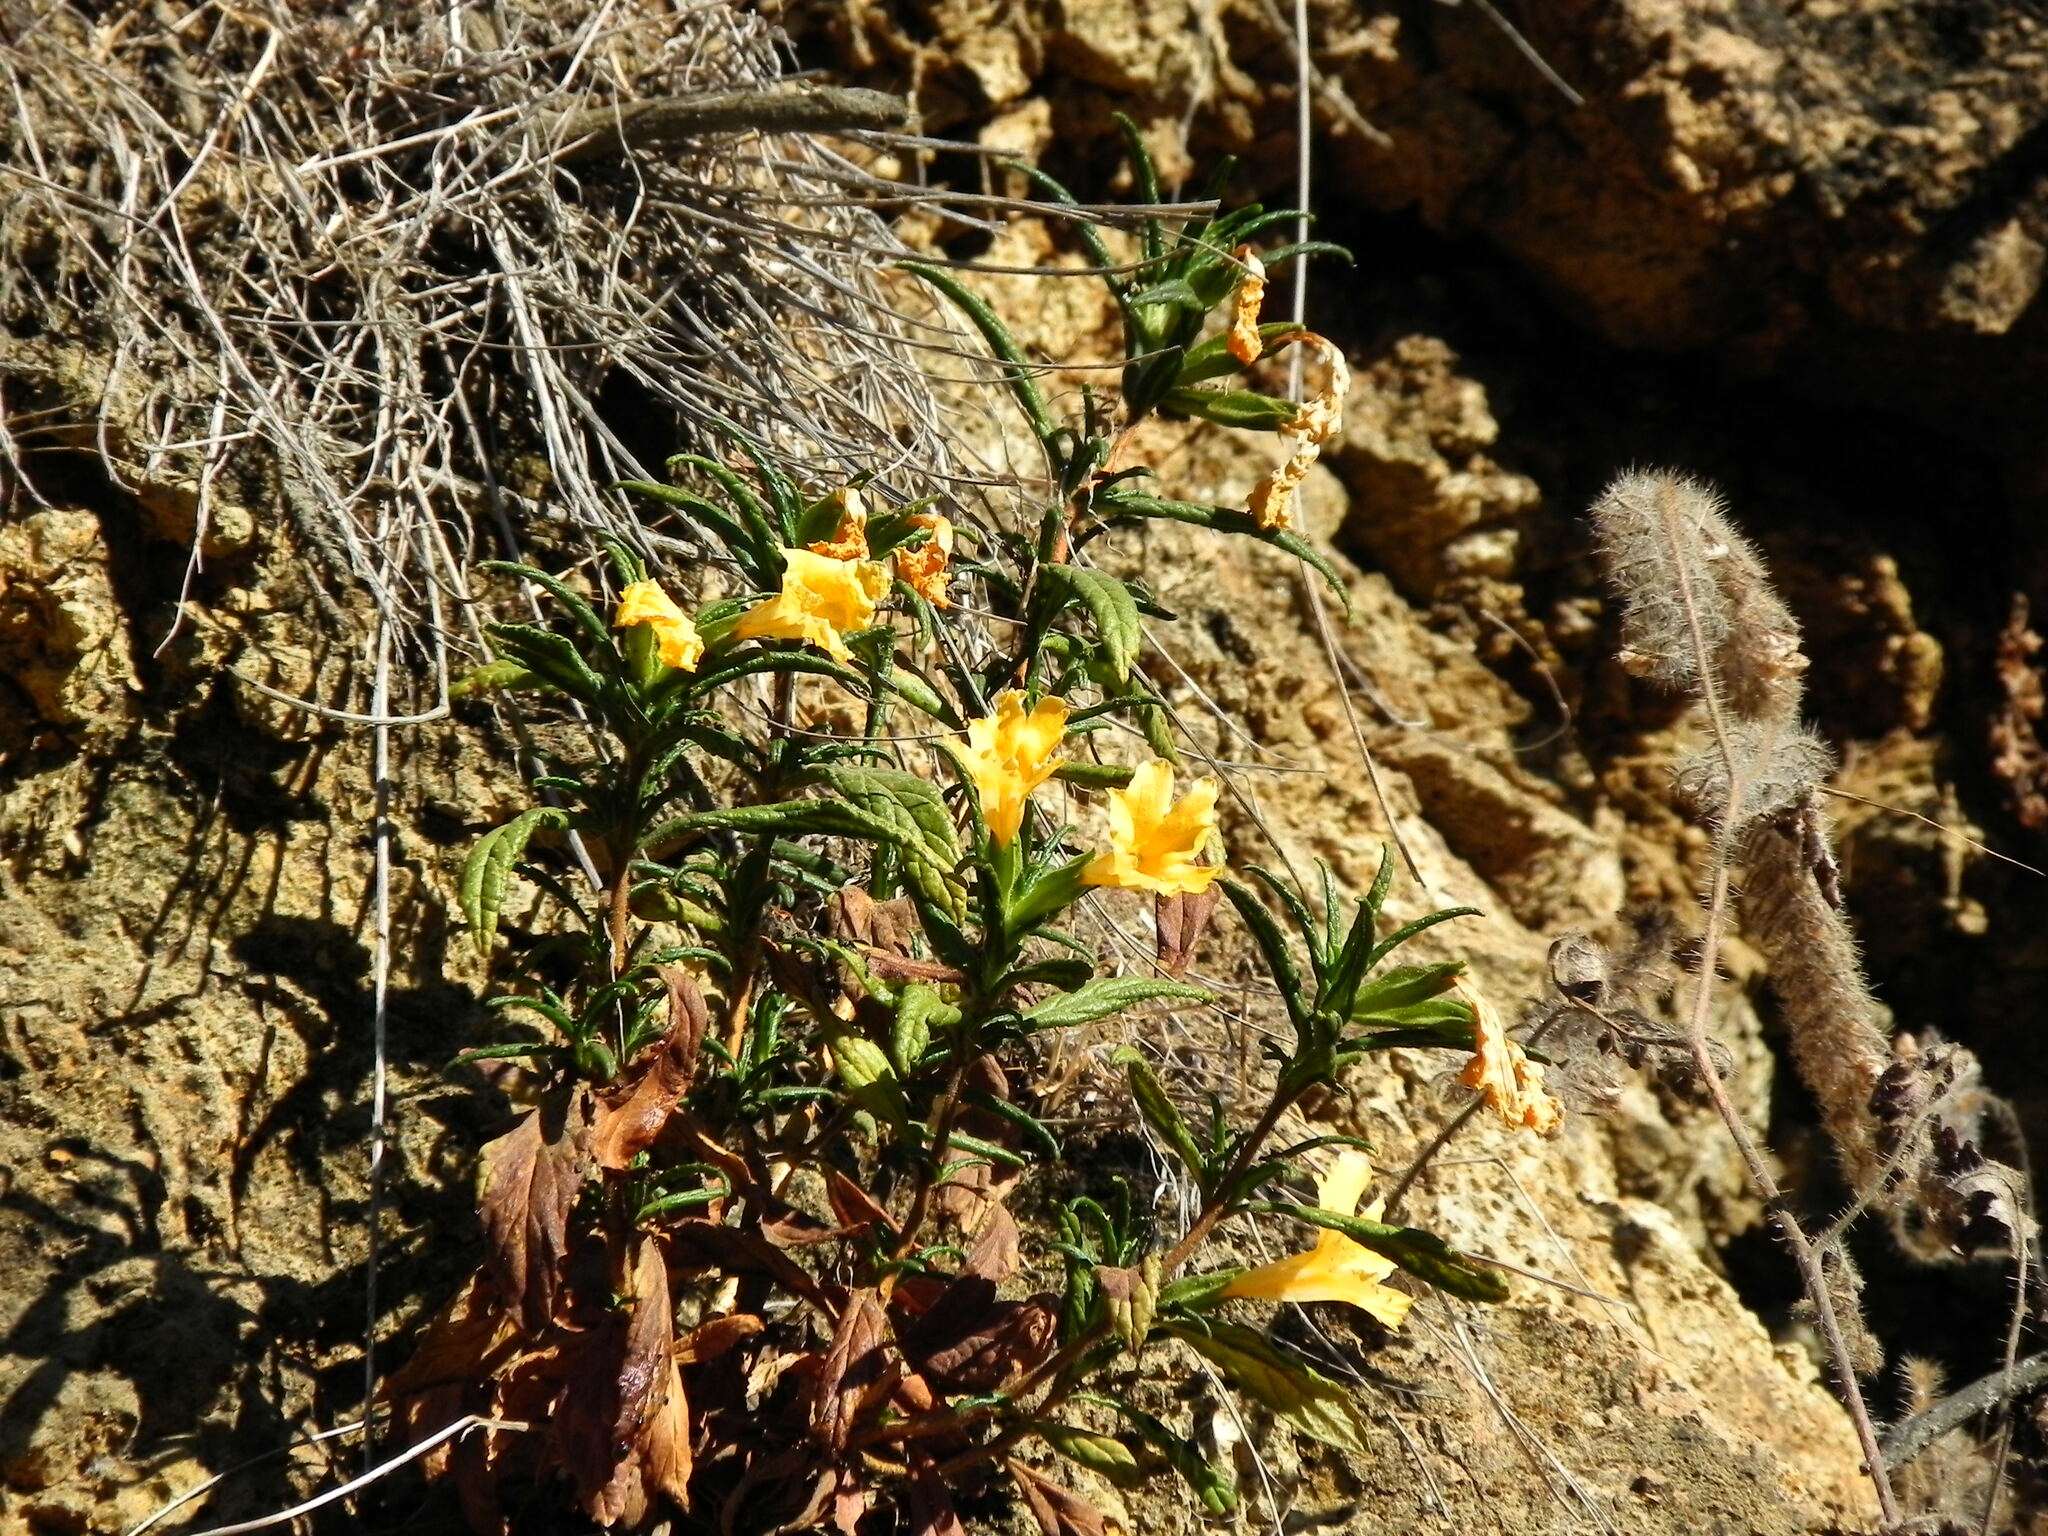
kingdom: Plantae
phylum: Tracheophyta
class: Magnoliopsida
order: Lamiales
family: Phrymaceae
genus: Diplacus
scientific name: Diplacus longiflorus
